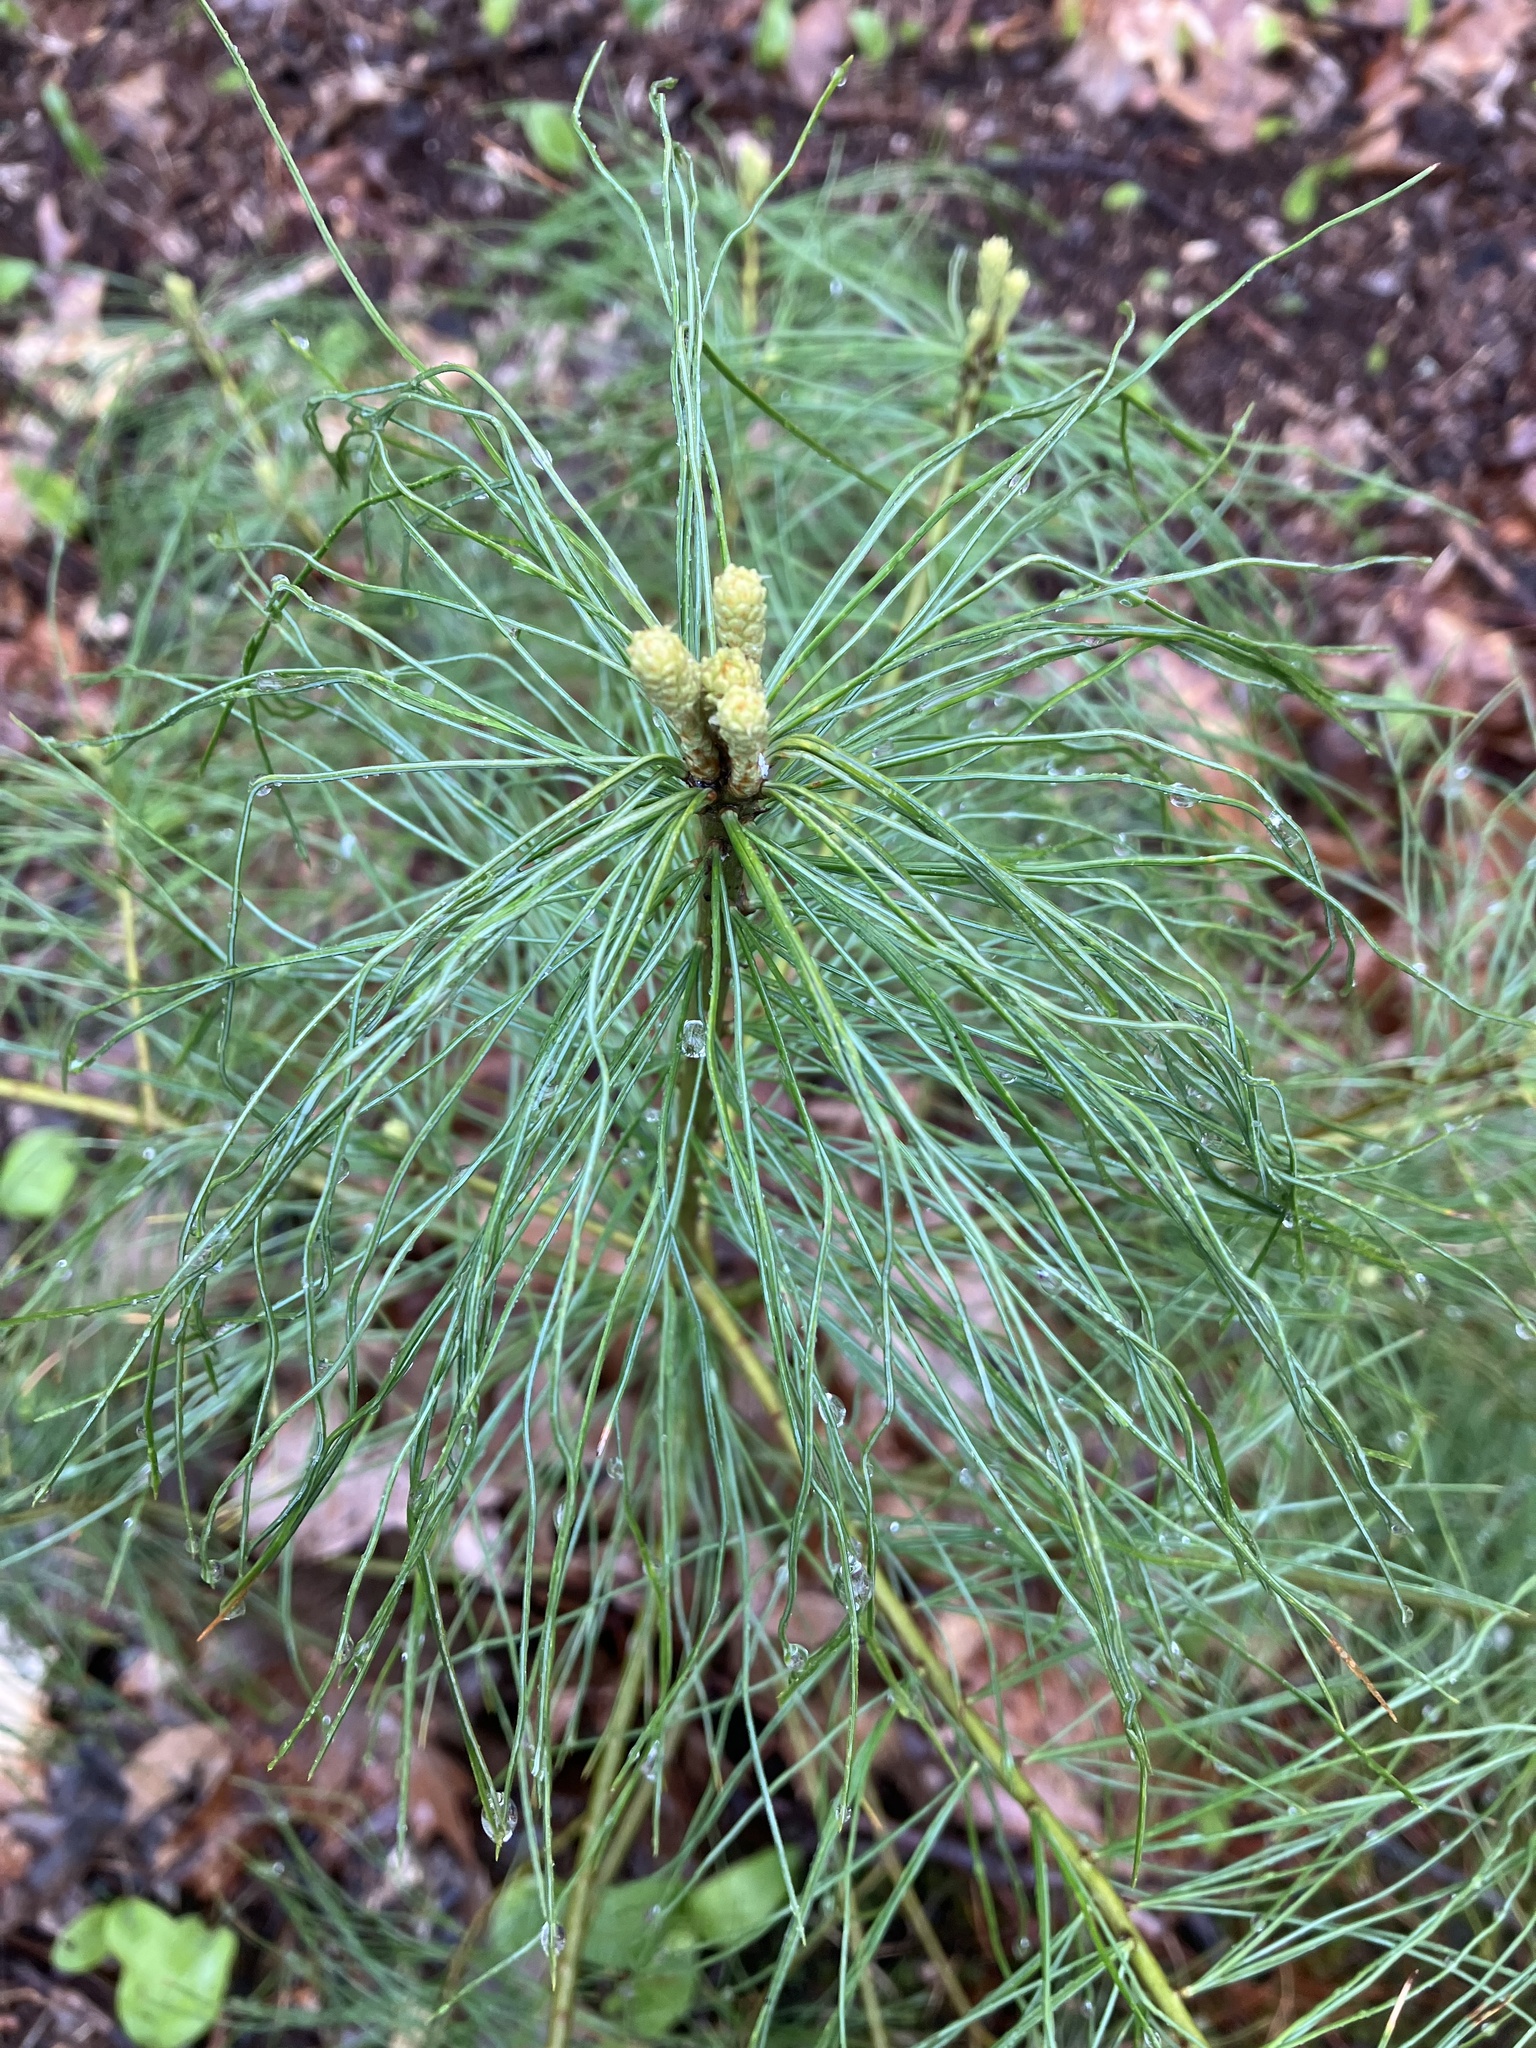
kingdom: Plantae
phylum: Tracheophyta
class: Pinopsida
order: Pinales
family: Pinaceae
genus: Pinus
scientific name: Pinus strobus
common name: Weymouth pine
